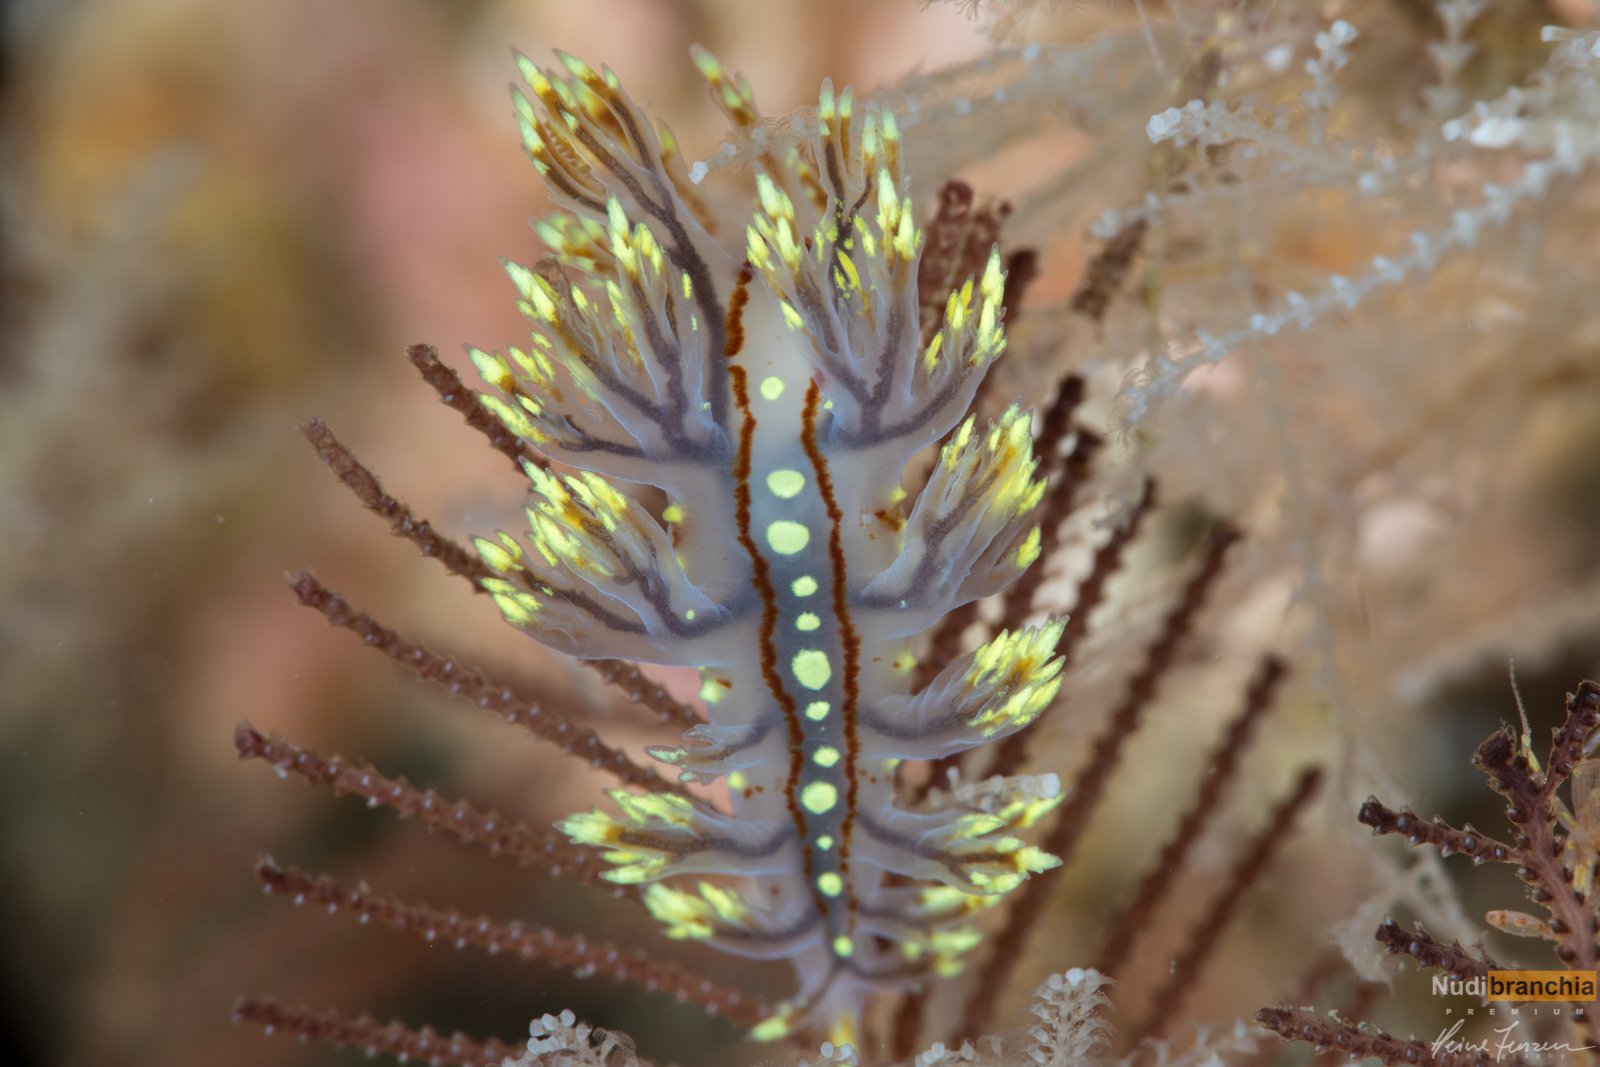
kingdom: Animalia
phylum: Mollusca
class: Gastropoda
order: Nudibranchia
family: Dendronotidae
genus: Dendronotus
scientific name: Dendronotus yrjargul
